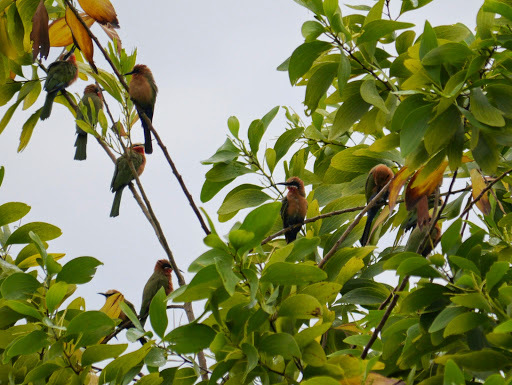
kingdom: Animalia
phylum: Chordata
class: Aves
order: Coraciiformes
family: Meropidae
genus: Merops
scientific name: Merops bullockoides
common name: White-fronted bee-eater
